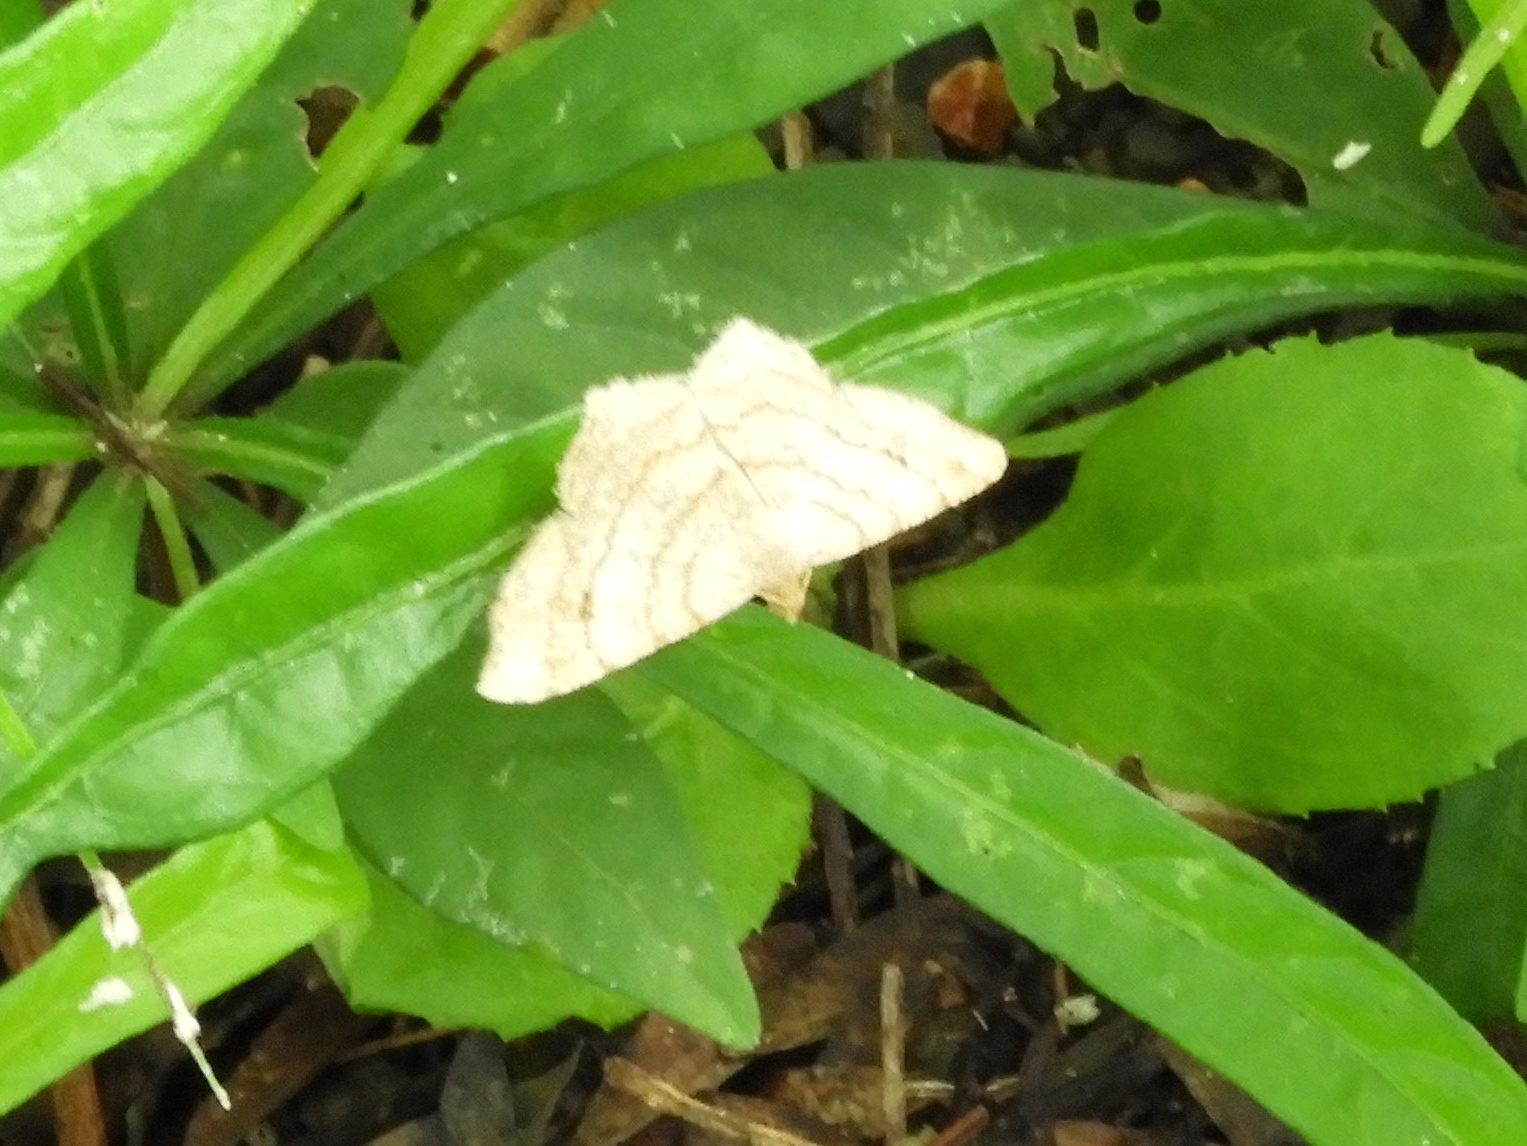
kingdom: Animalia
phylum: Arthropoda
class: Insecta
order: Lepidoptera
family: Geometridae
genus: Digrammia
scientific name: Digrammia ocellinata
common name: Faint-spotted angle
